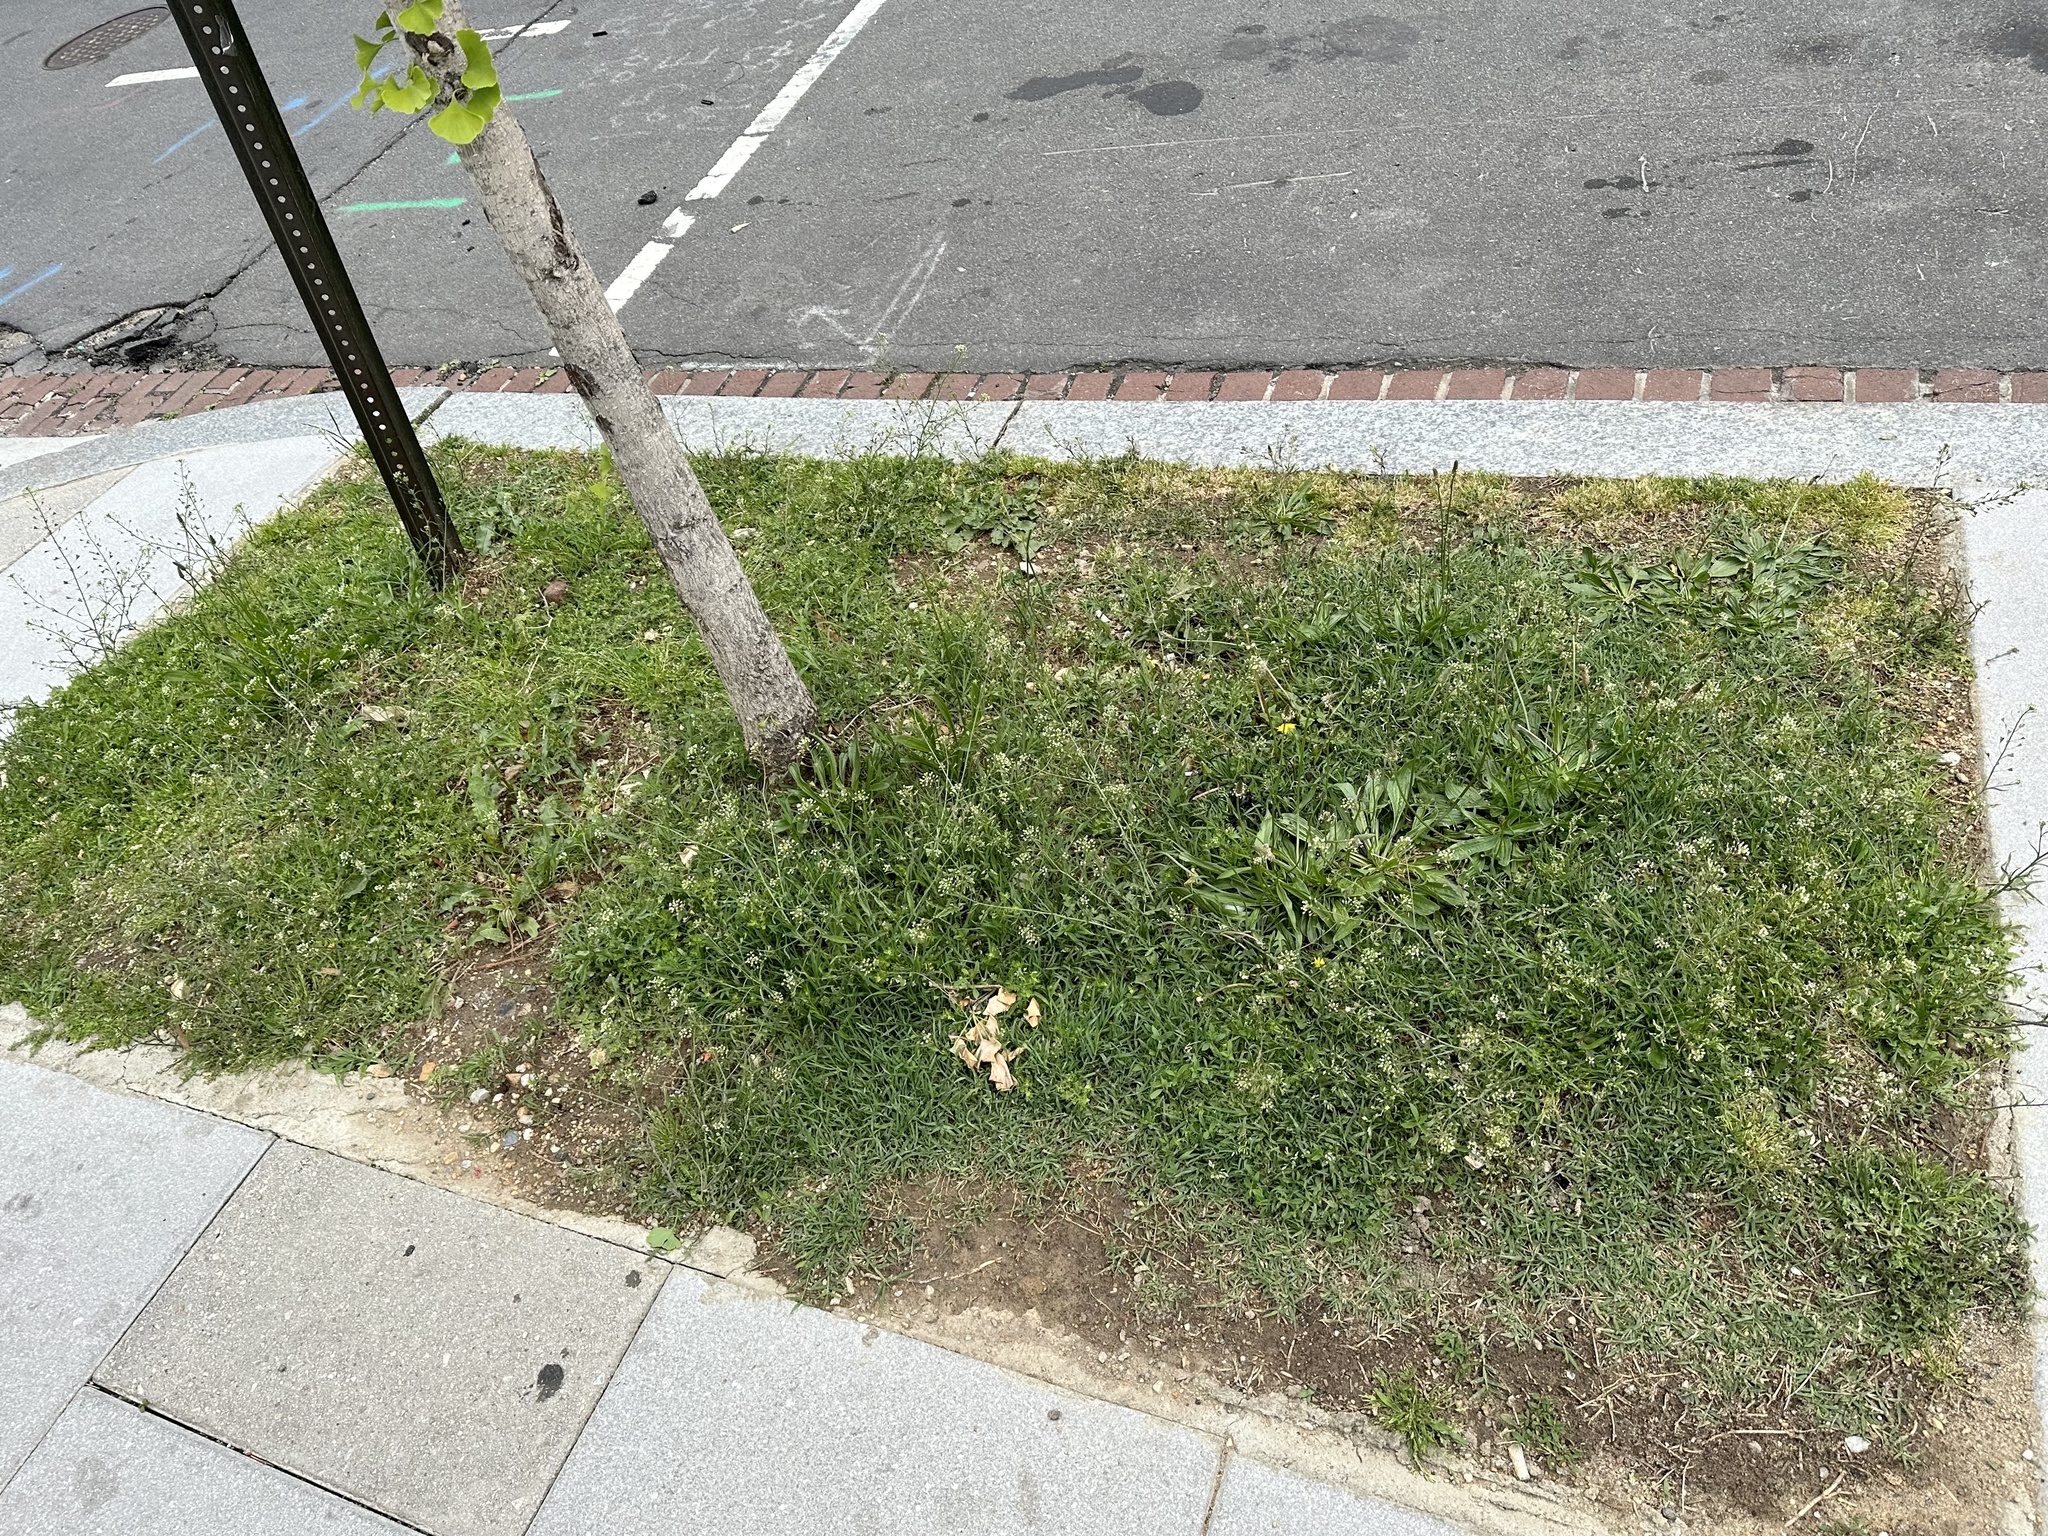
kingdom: Plantae
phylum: Tracheophyta
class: Magnoliopsida
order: Brassicales
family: Brassicaceae
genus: Capsella
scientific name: Capsella bursa-pastoris
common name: Shepherd's purse
